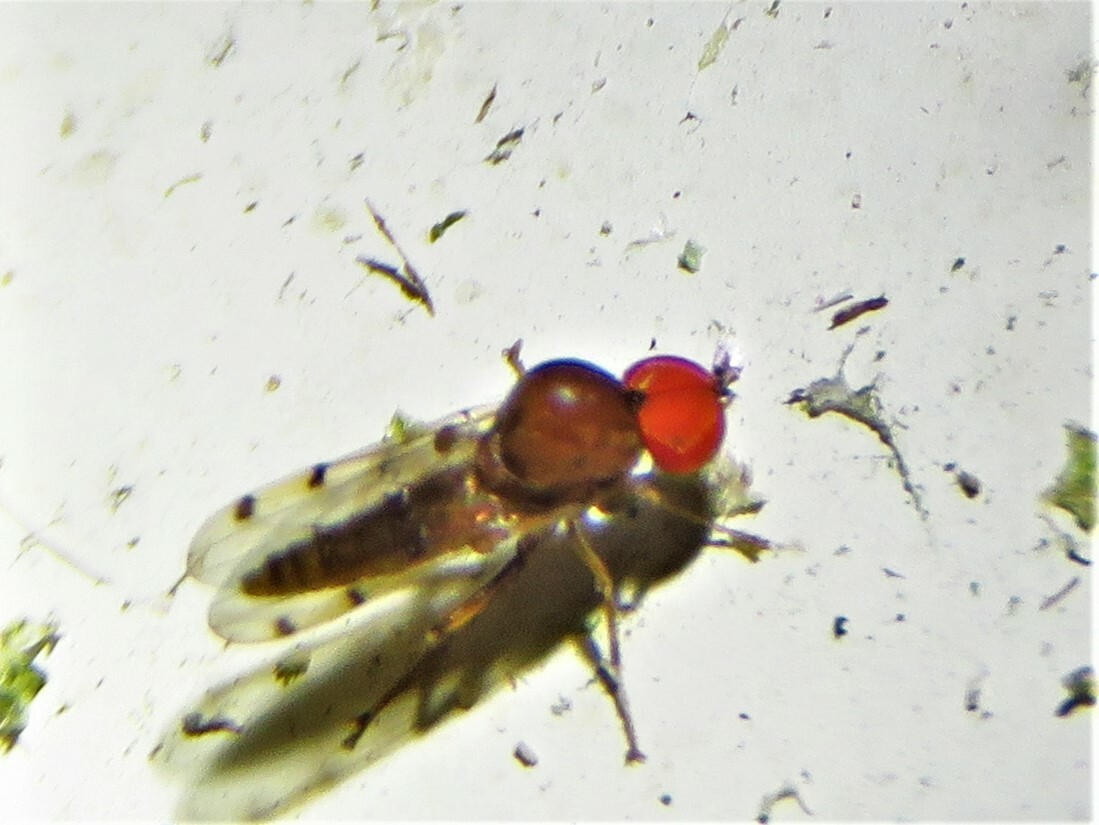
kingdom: Animalia
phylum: Arthropoda
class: Insecta
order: Diptera
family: Hybotidae
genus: Syneches
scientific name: Syneches simplex
